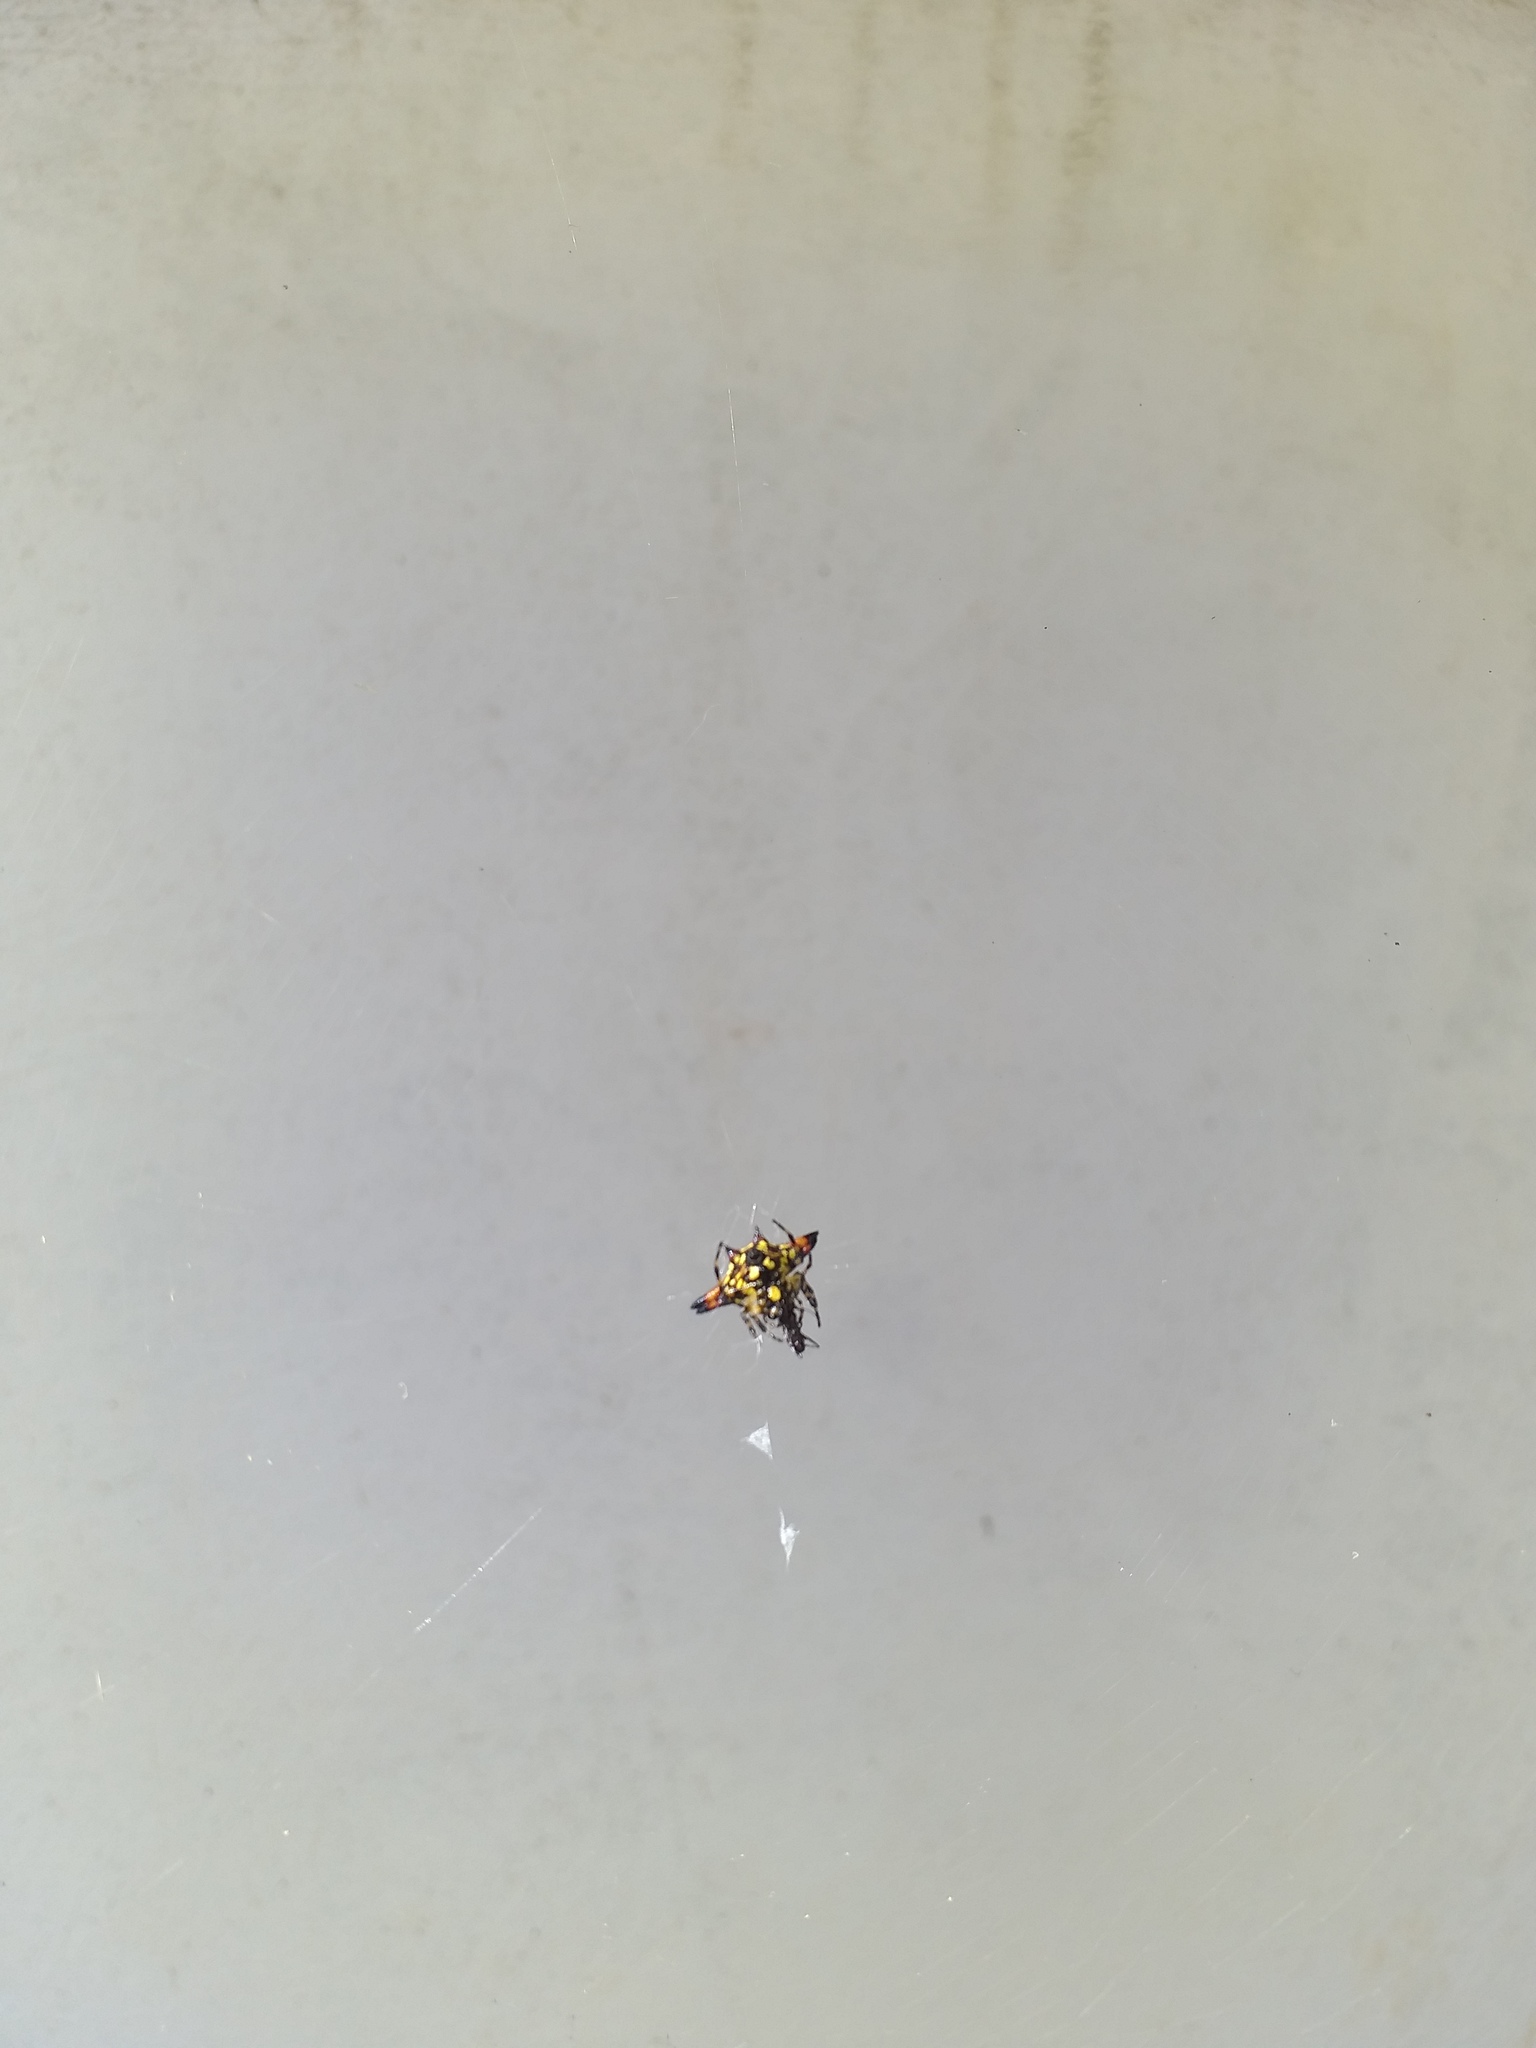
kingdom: Animalia
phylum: Arthropoda
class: Arachnida
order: Araneae
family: Araneidae
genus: Gasteracantha
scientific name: Gasteracantha geminata
